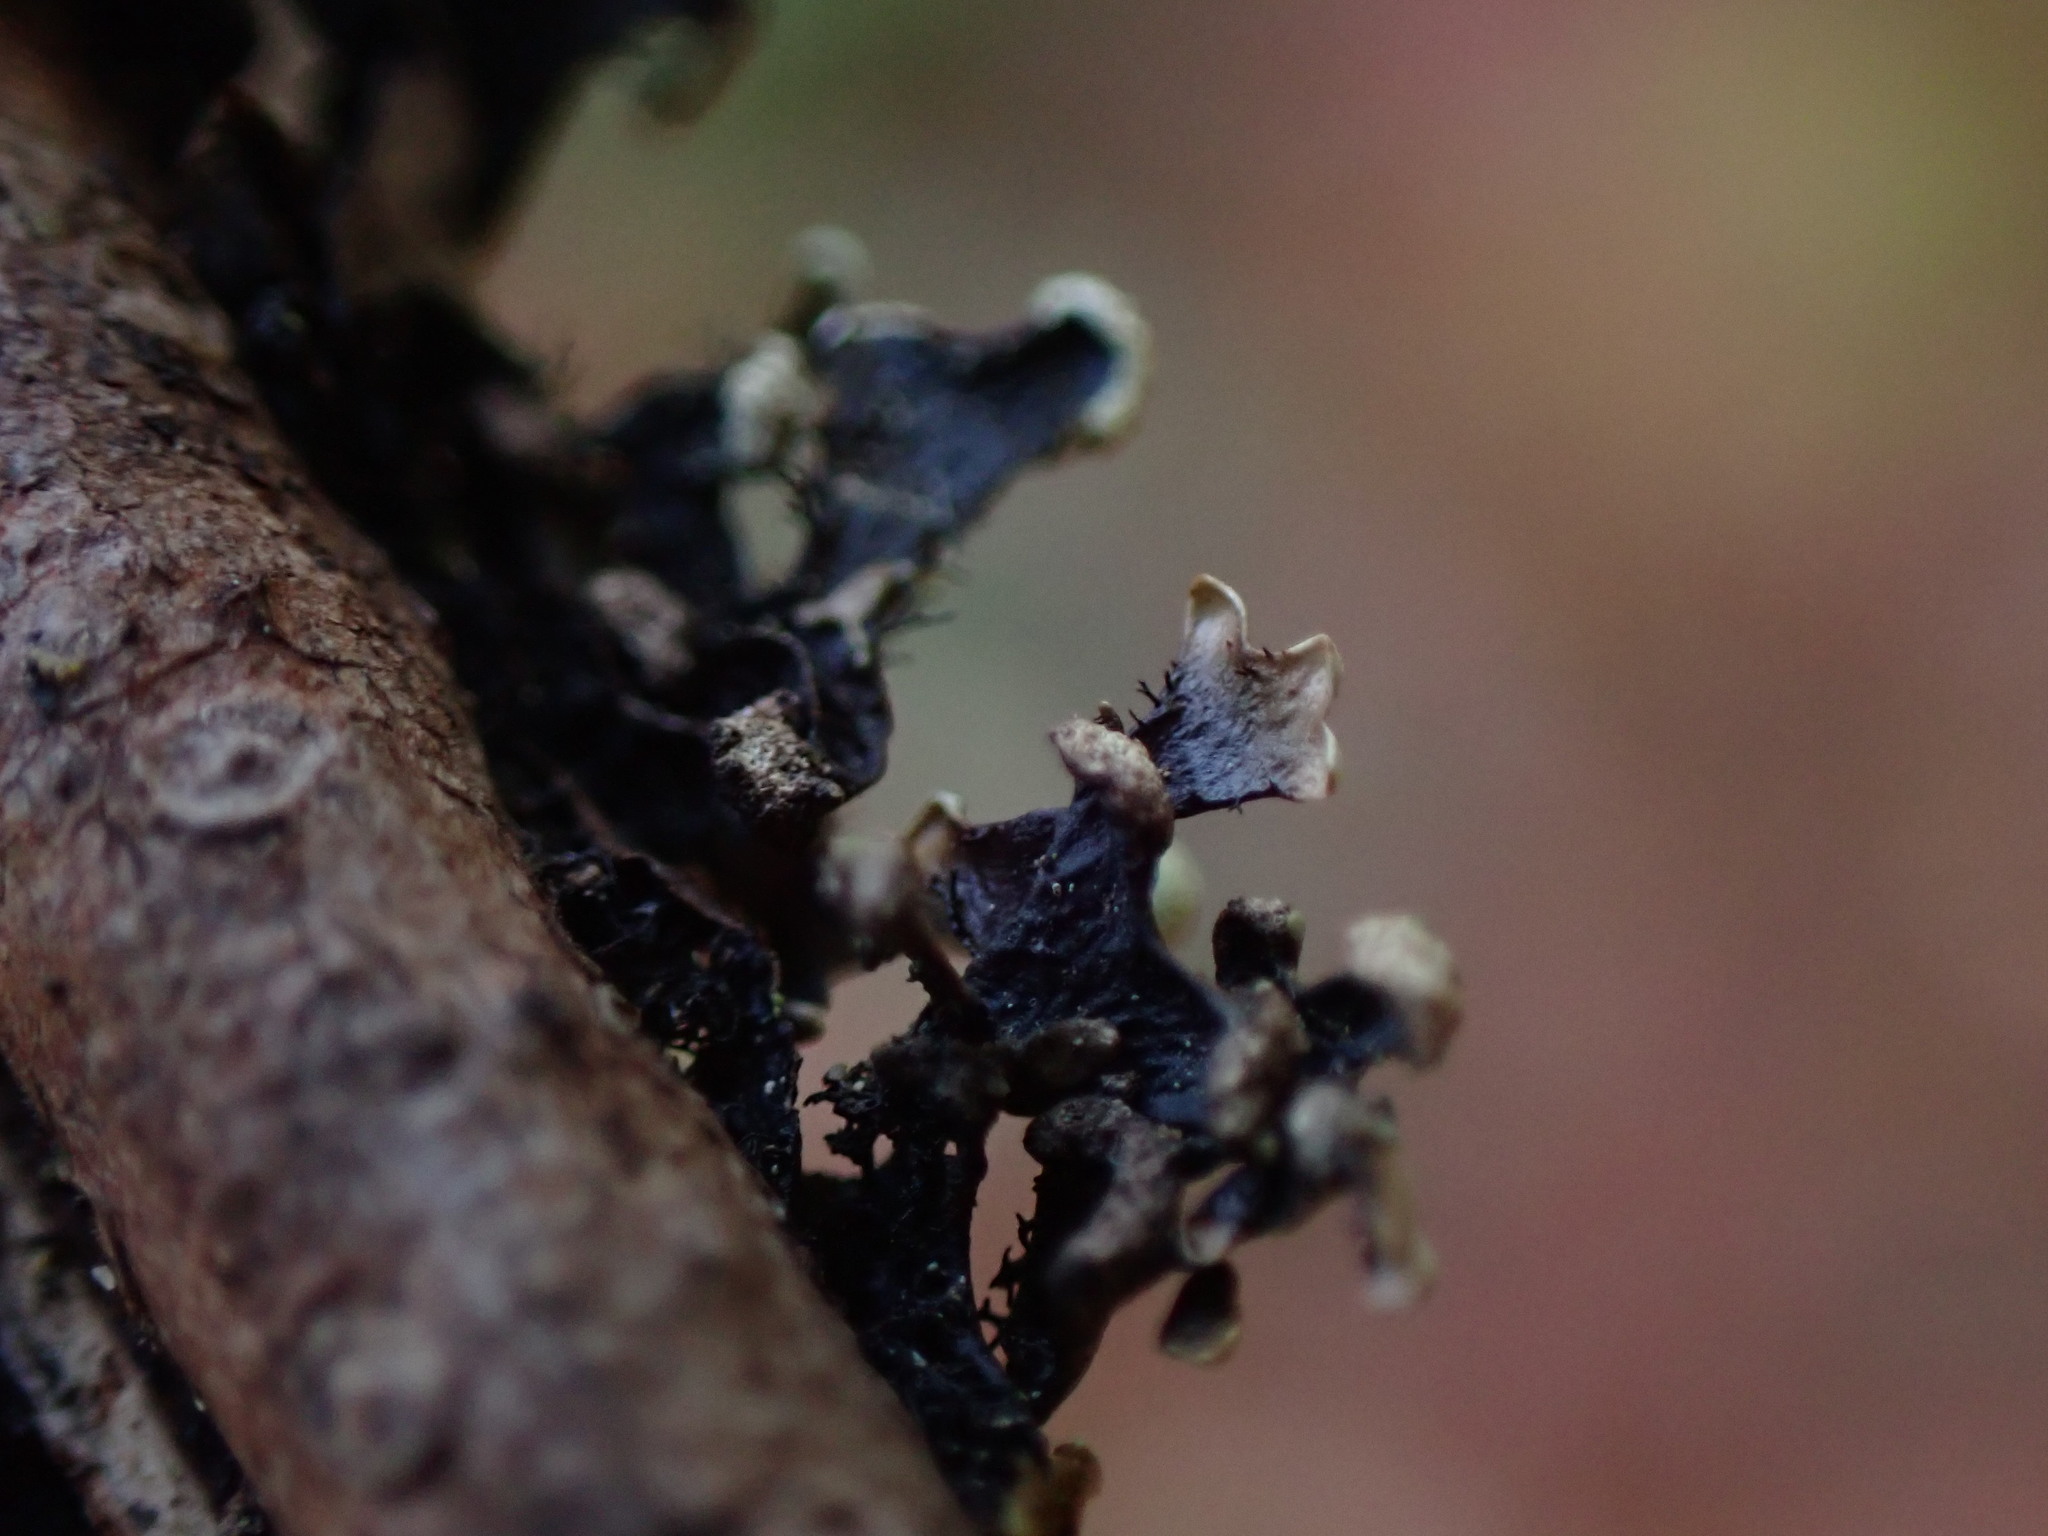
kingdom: Fungi
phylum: Ascomycota
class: Lecanoromycetes
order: Lecanorales
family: Parmeliaceae
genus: Hypotrachyna
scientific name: Hypotrachyna sinuosa
